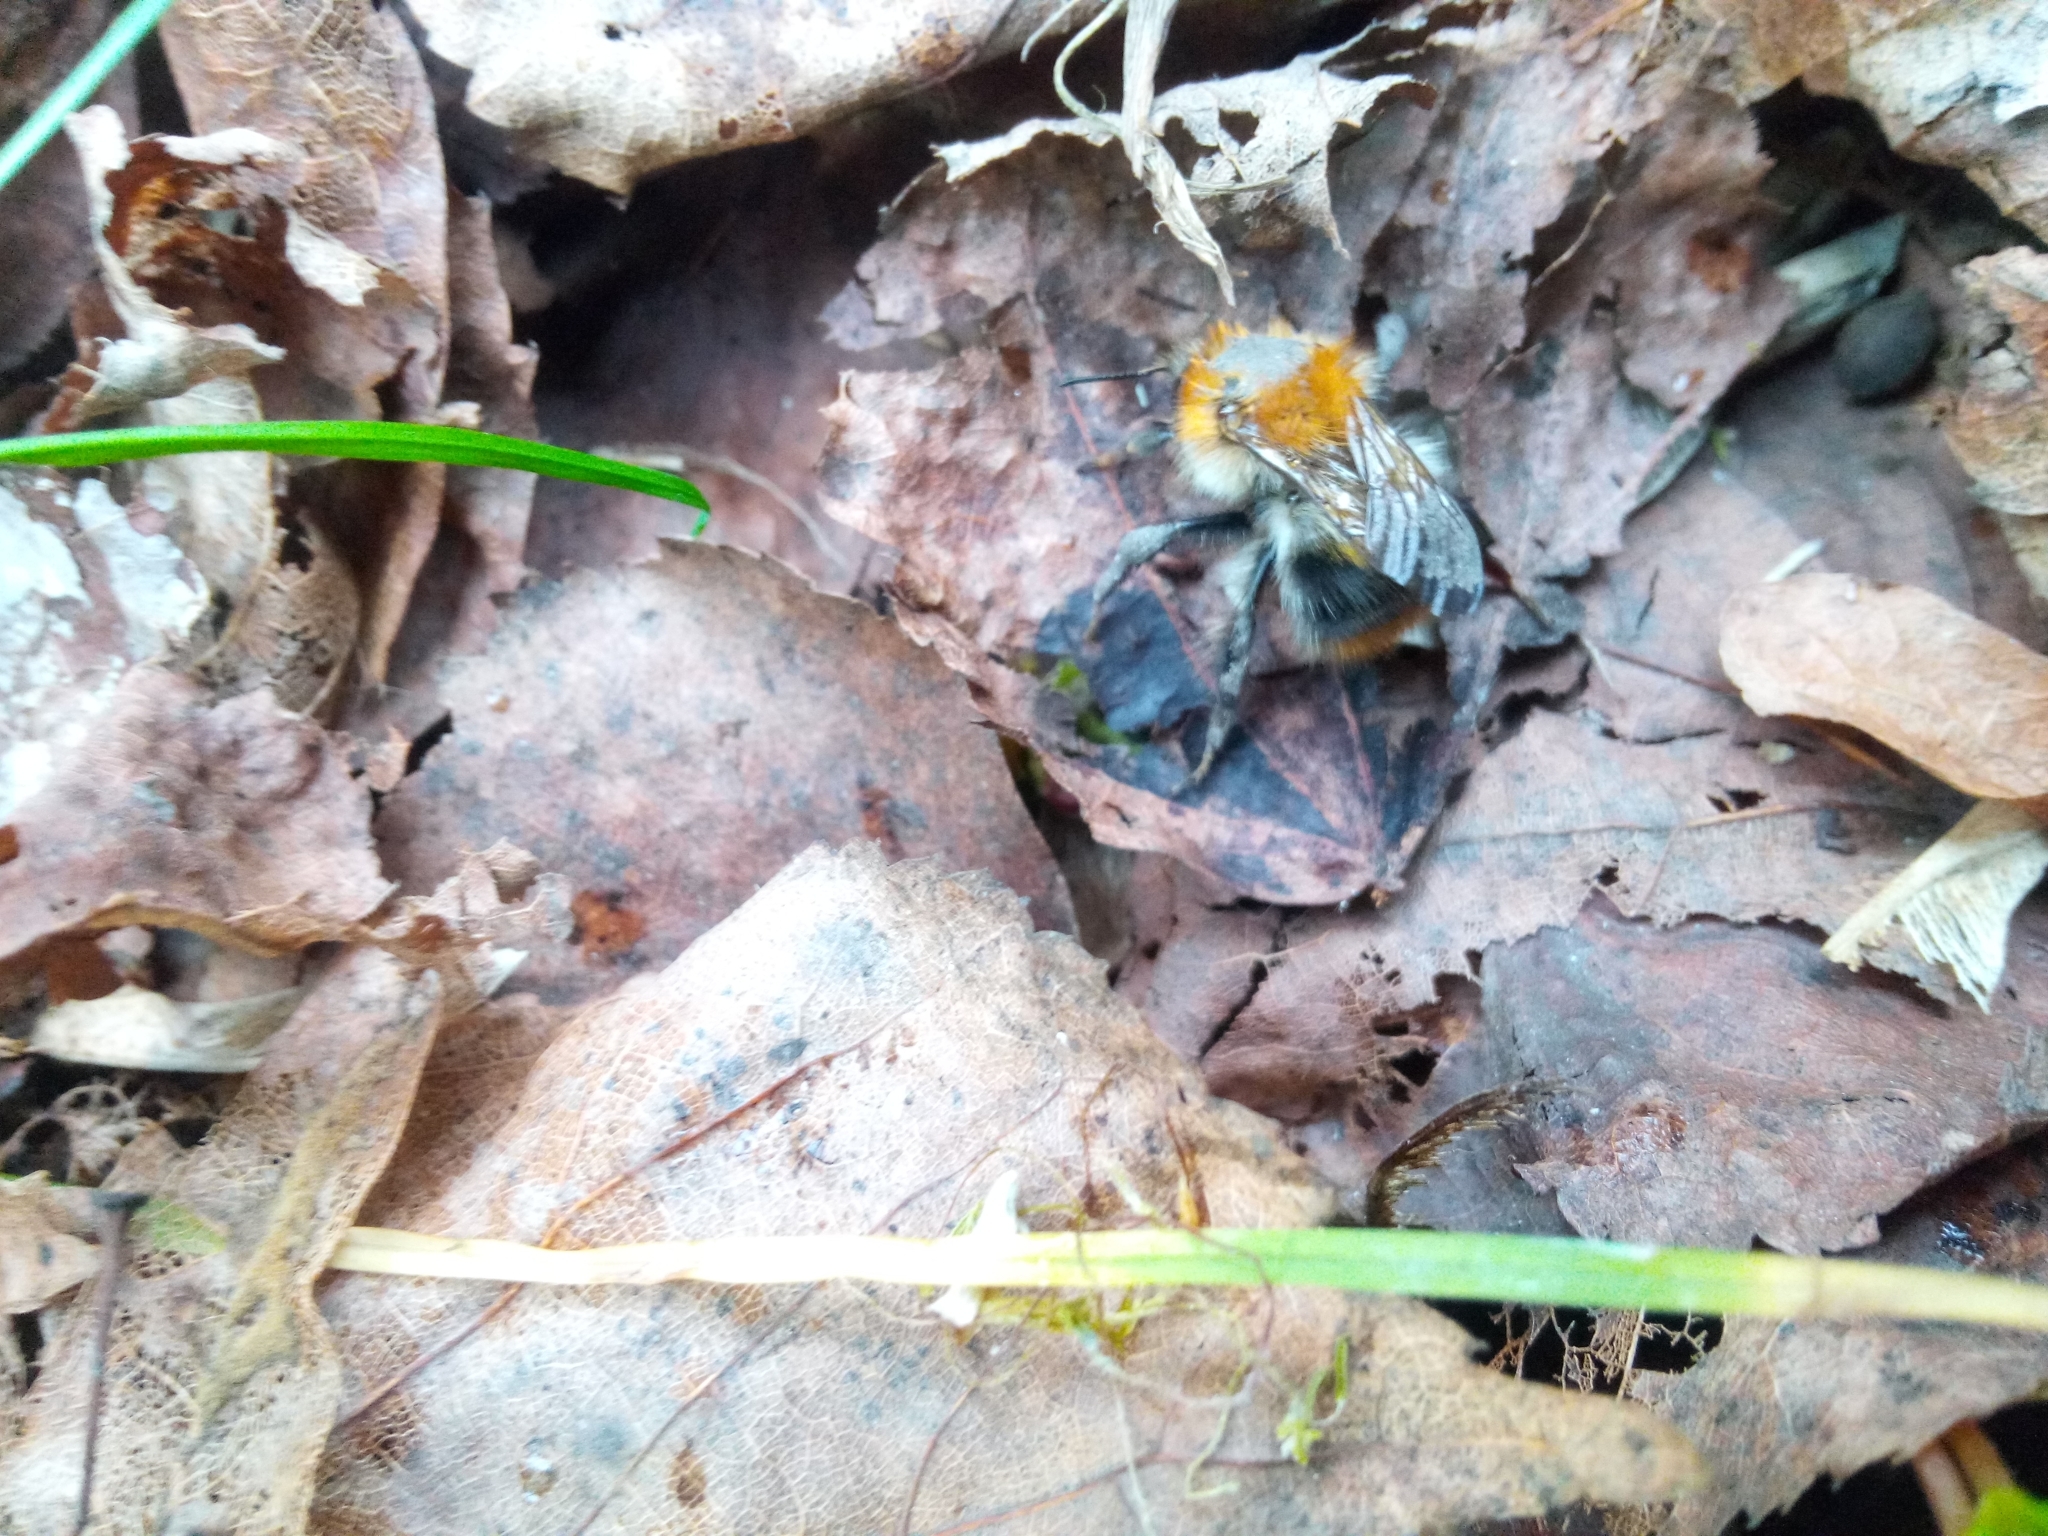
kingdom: Animalia
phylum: Arthropoda
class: Insecta
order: Hymenoptera
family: Apidae
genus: Bombus
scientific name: Bombus pascuorum
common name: Common carder bee
